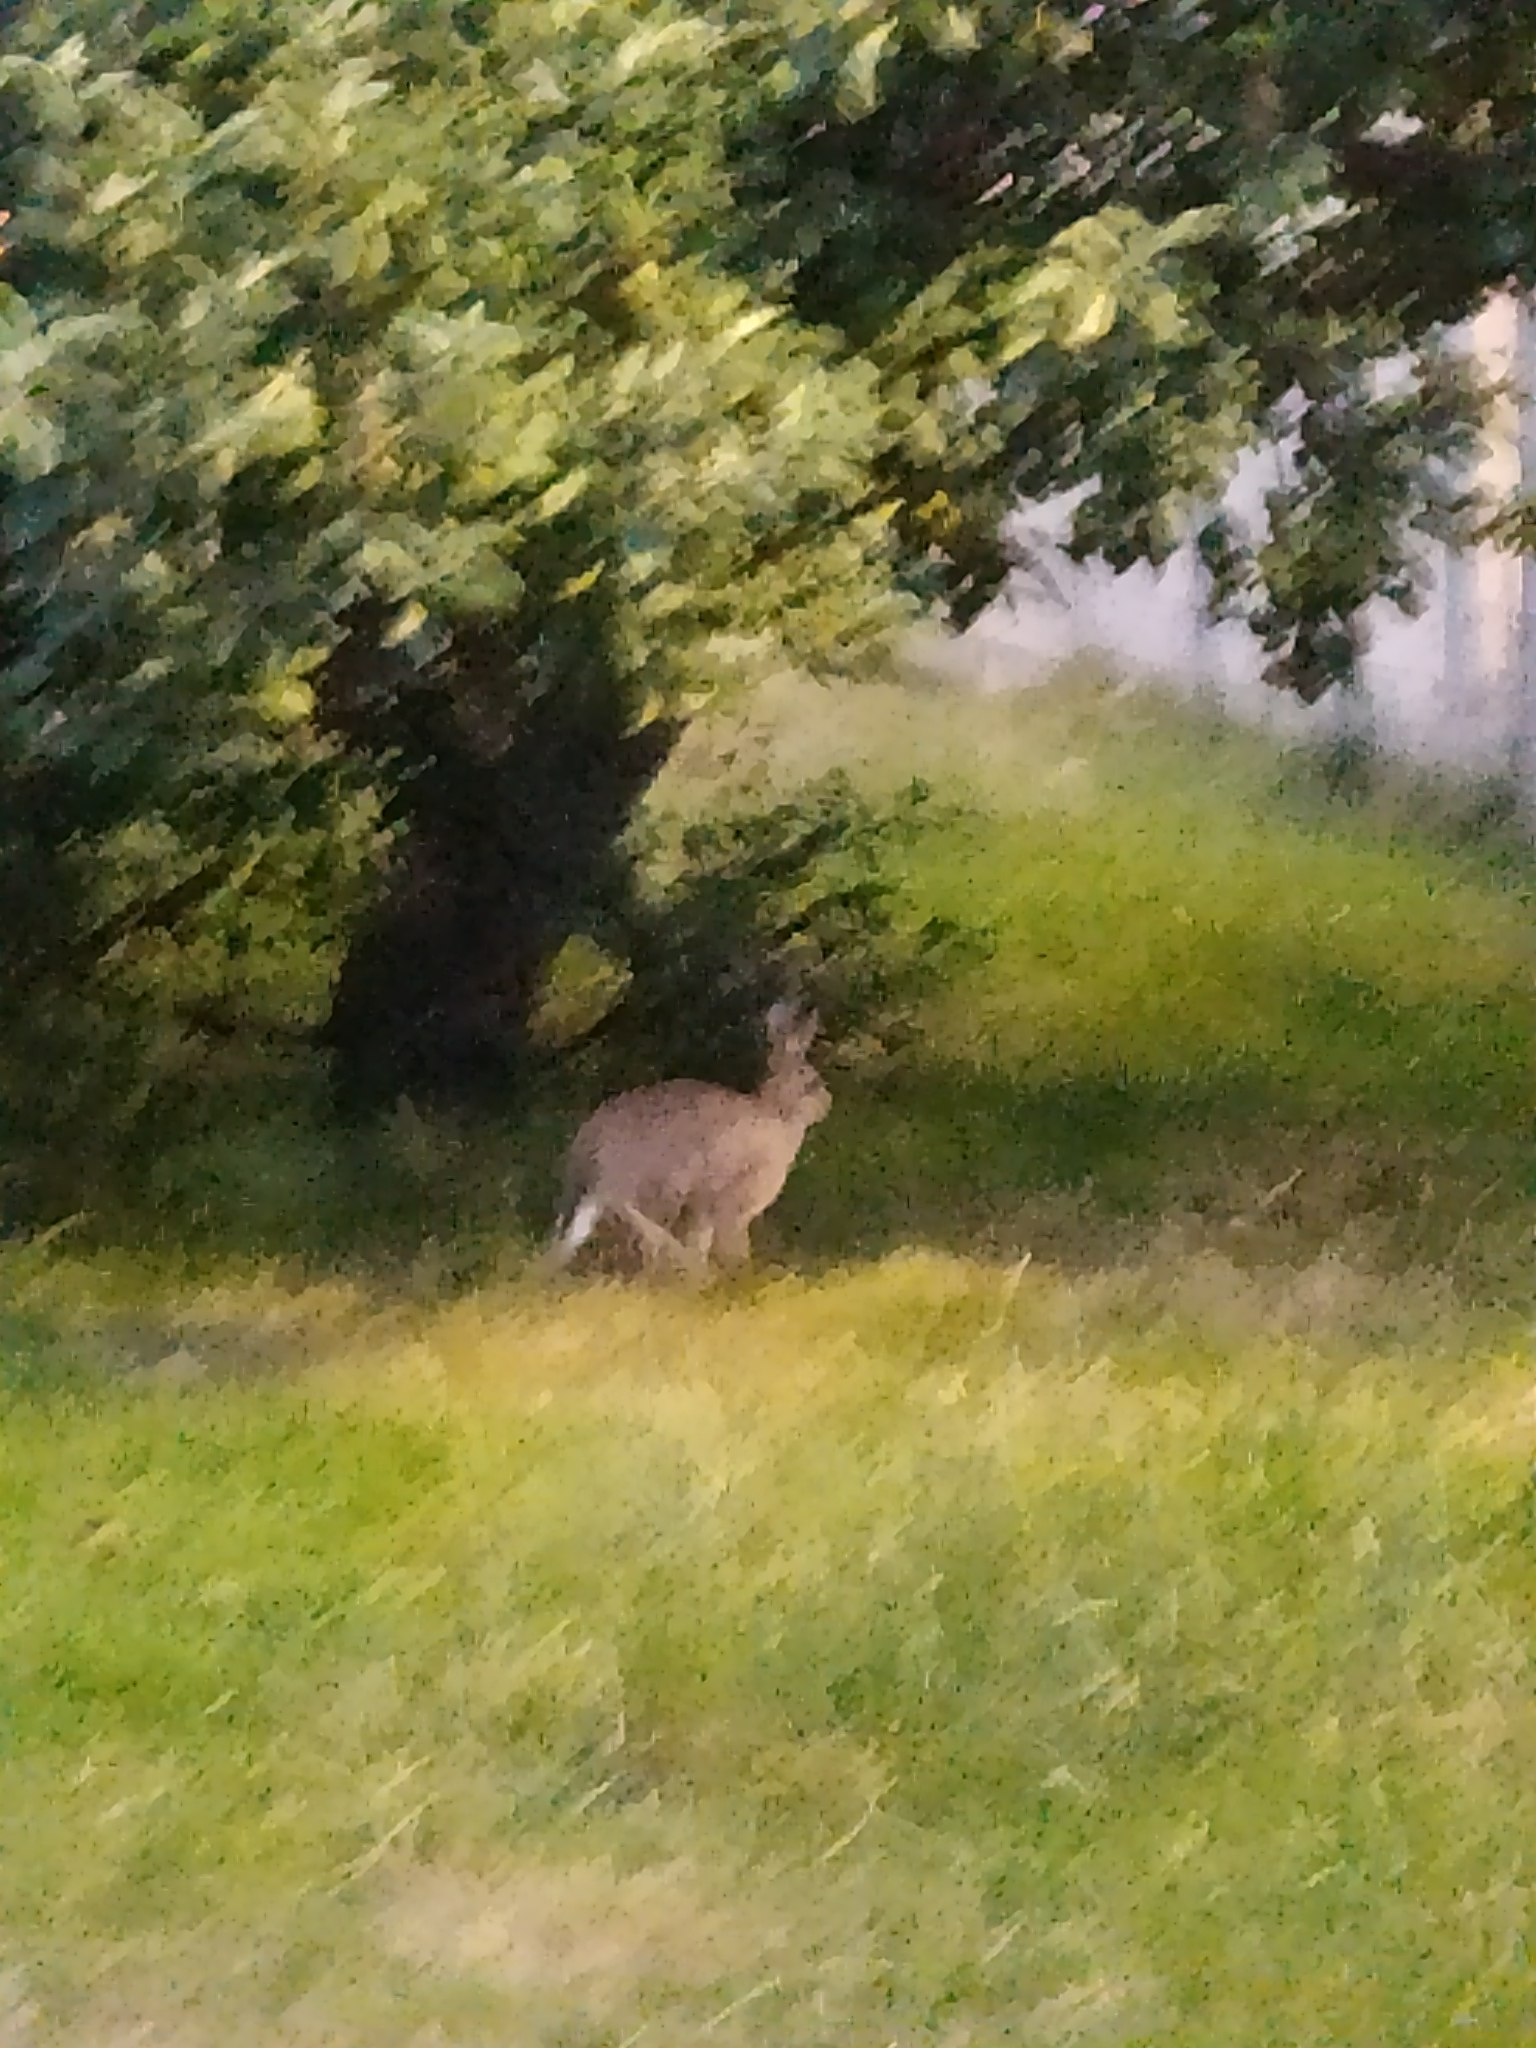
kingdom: Animalia
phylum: Chordata
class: Mammalia
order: Lagomorpha
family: Leporidae
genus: Lepus
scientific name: Lepus europaeus
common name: European hare
